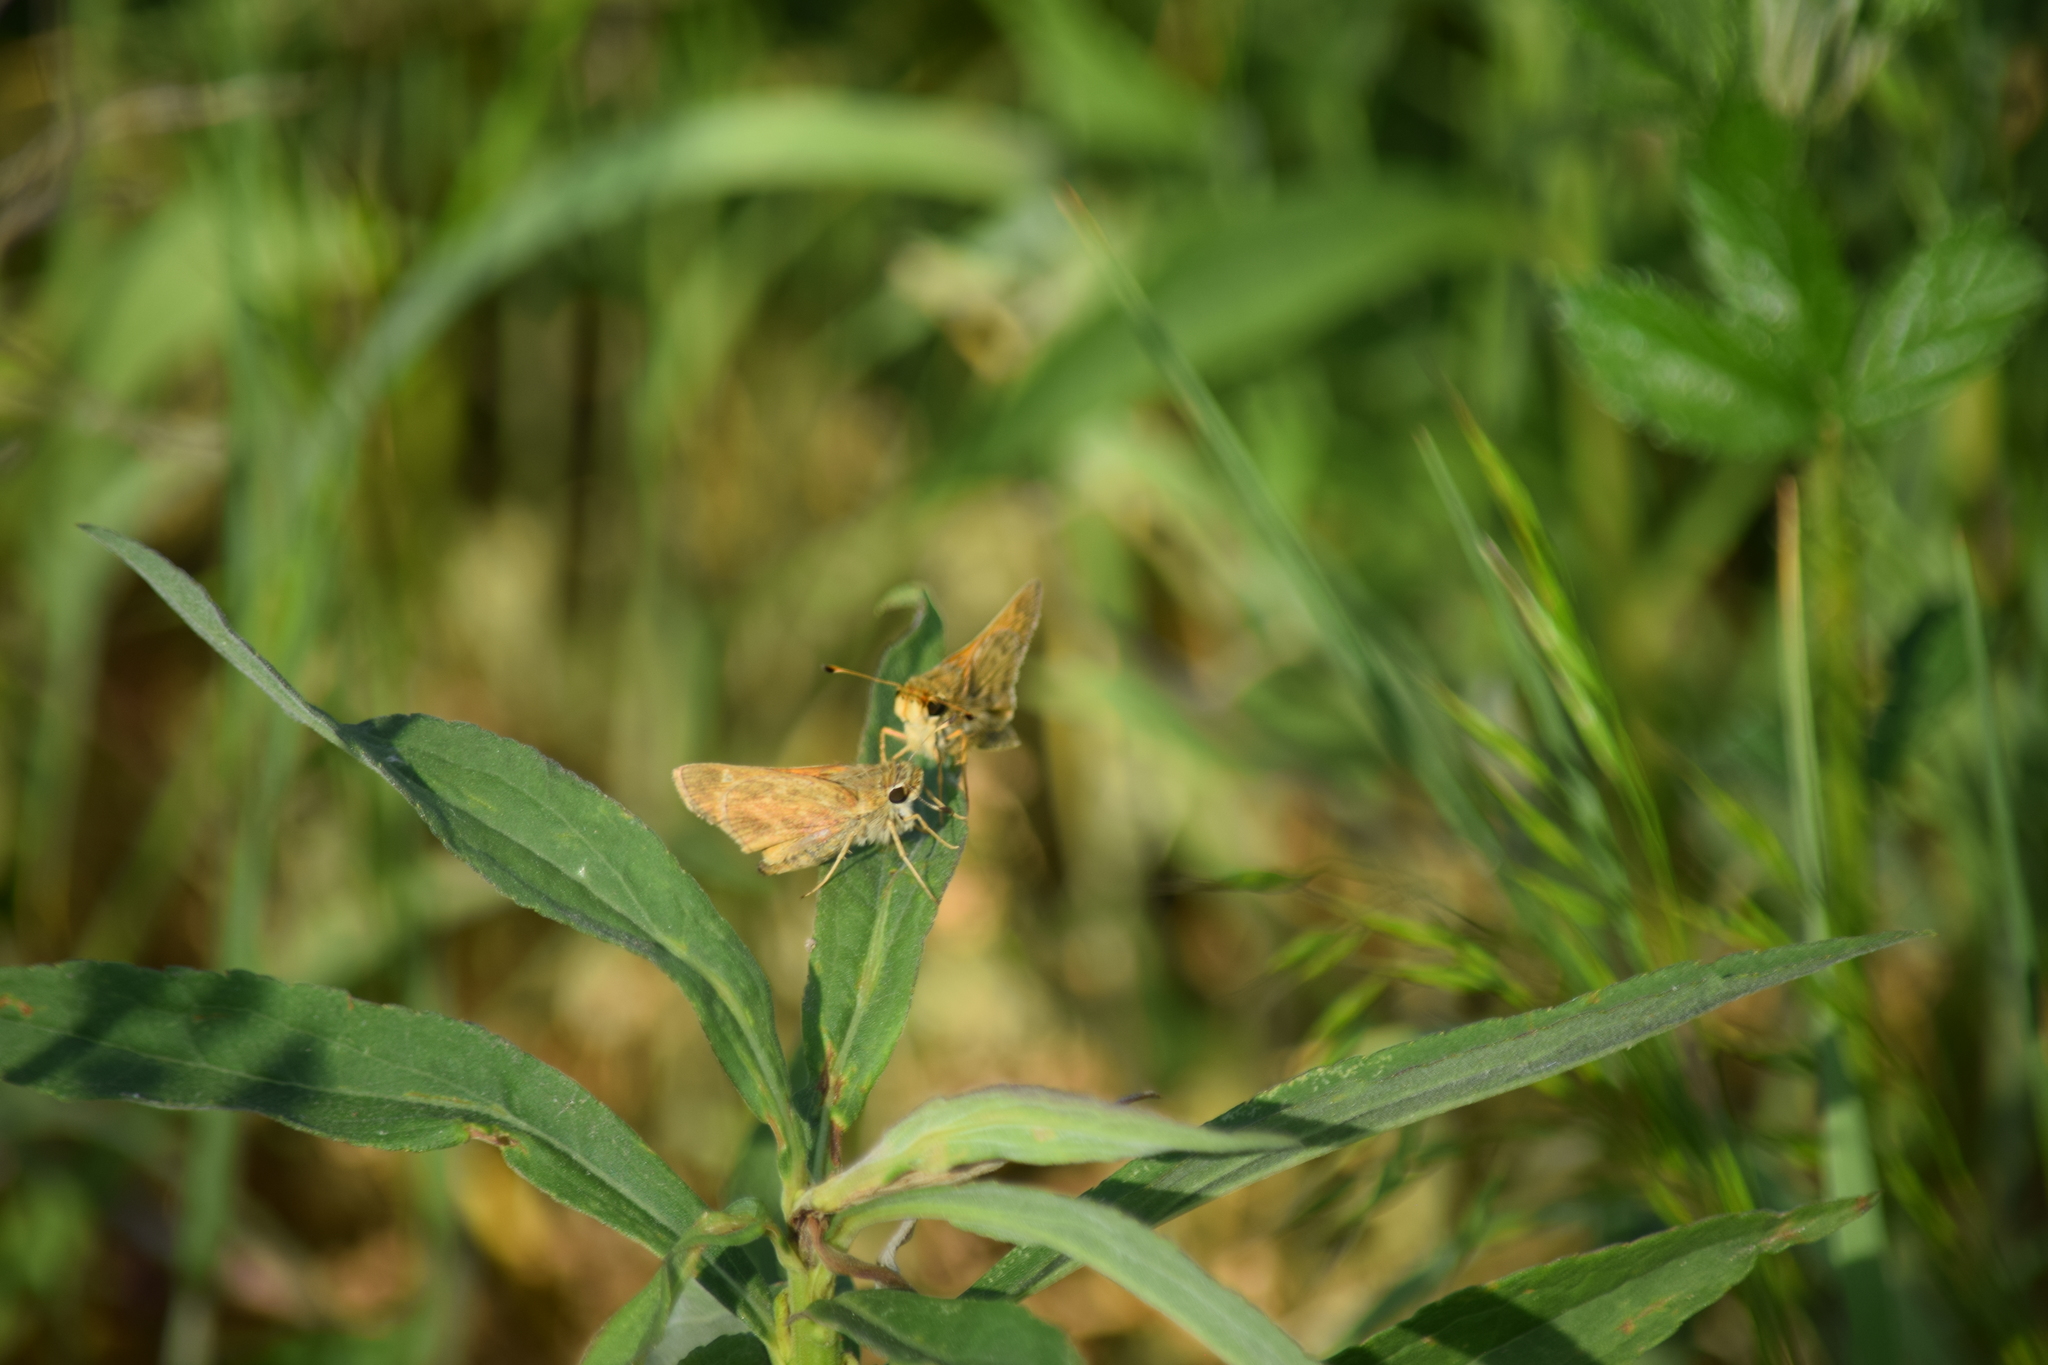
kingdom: Animalia
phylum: Arthropoda
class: Insecta
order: Lepidoptera
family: Hesperiidae
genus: Atalopedes
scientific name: Atalopedes
